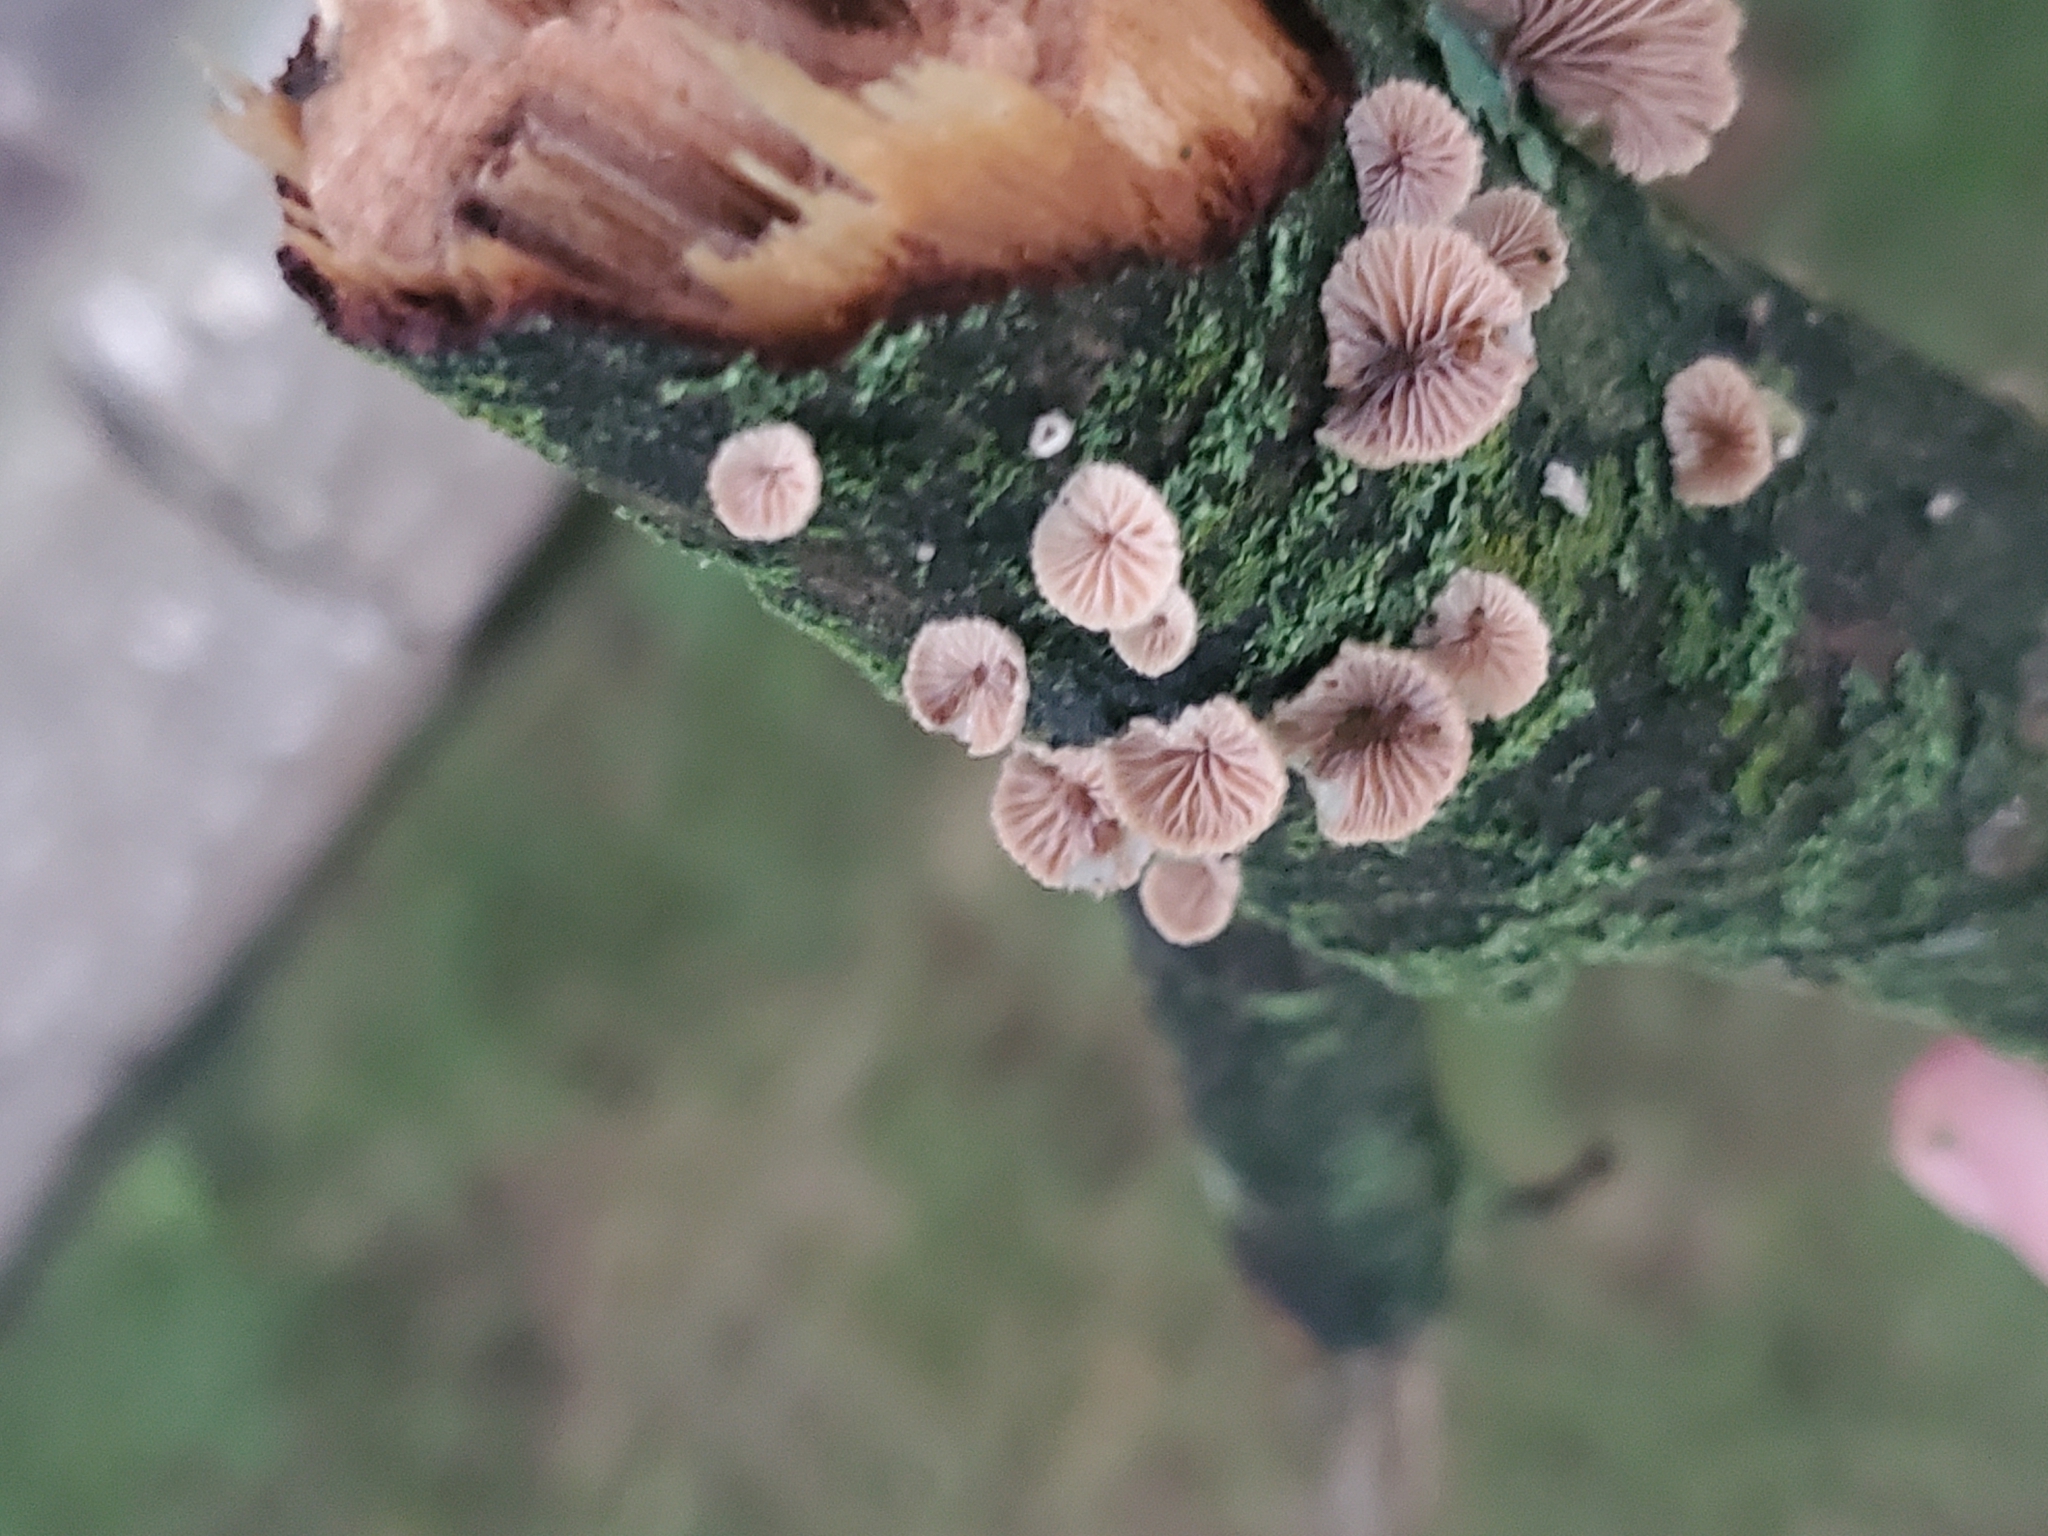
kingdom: Fungi
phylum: Basidiomycota
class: Agaricomycetes
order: Agaricales
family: Schizophyllaceae
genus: Schizophyllum
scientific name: Schizophyllum commune
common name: Common porecrust
